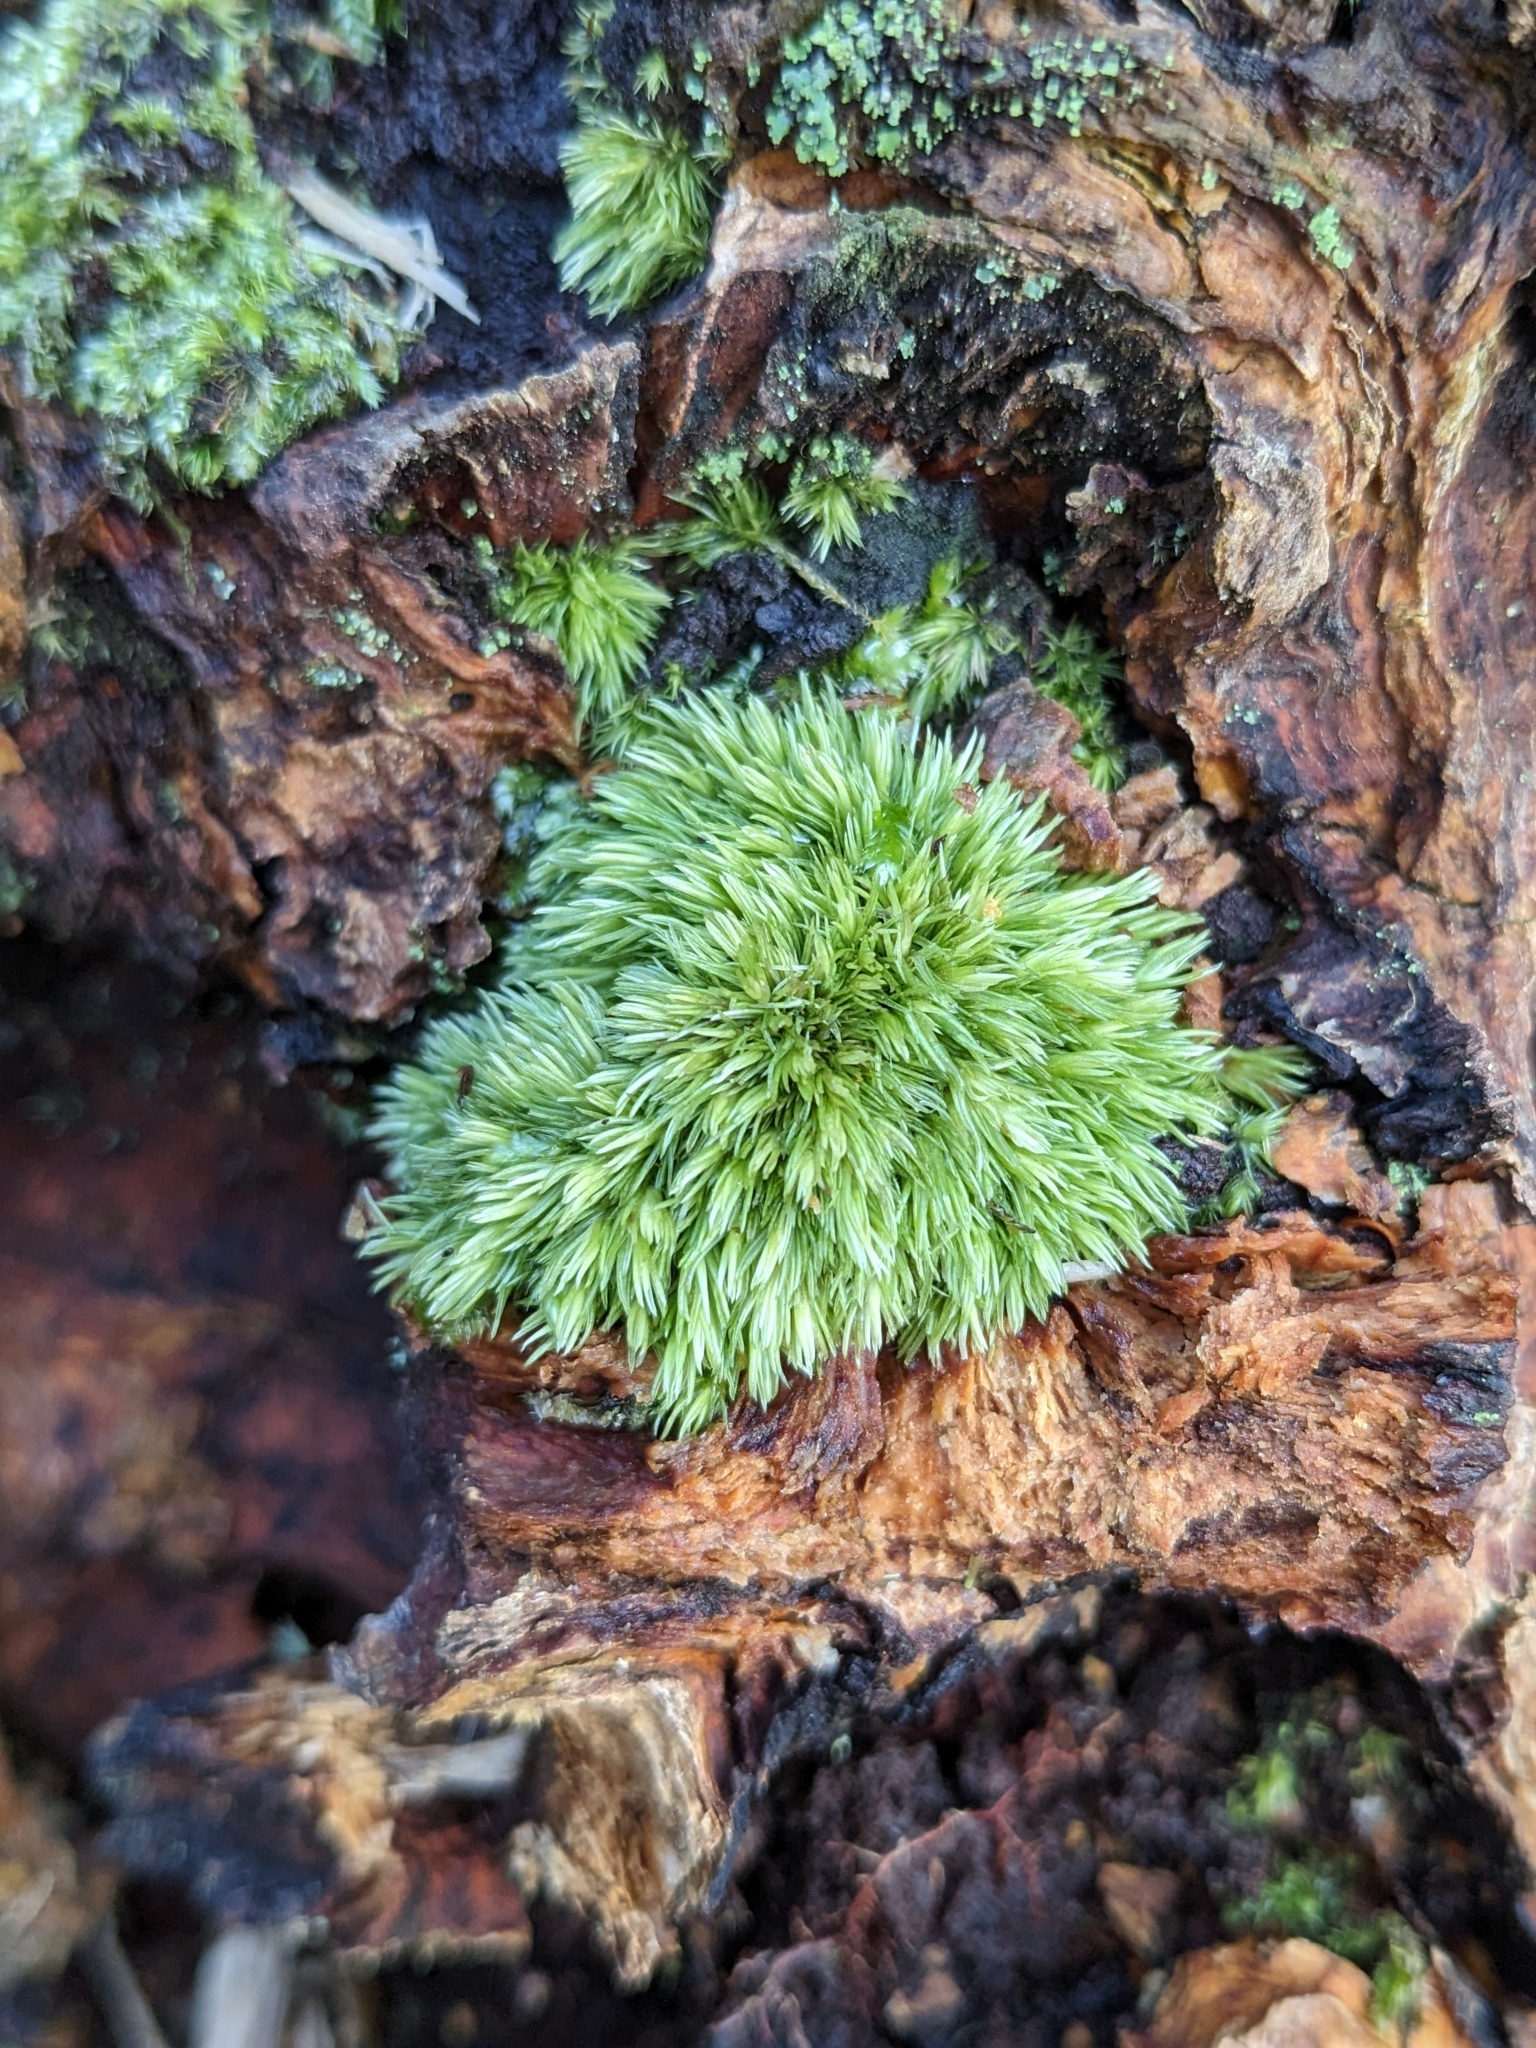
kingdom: Plantae
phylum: Bryophyta
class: Bryopsida
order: Dicranales
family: Leucobryaceae
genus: Leucobryum
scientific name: Leucobryum glaucum
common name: Large white-moss
